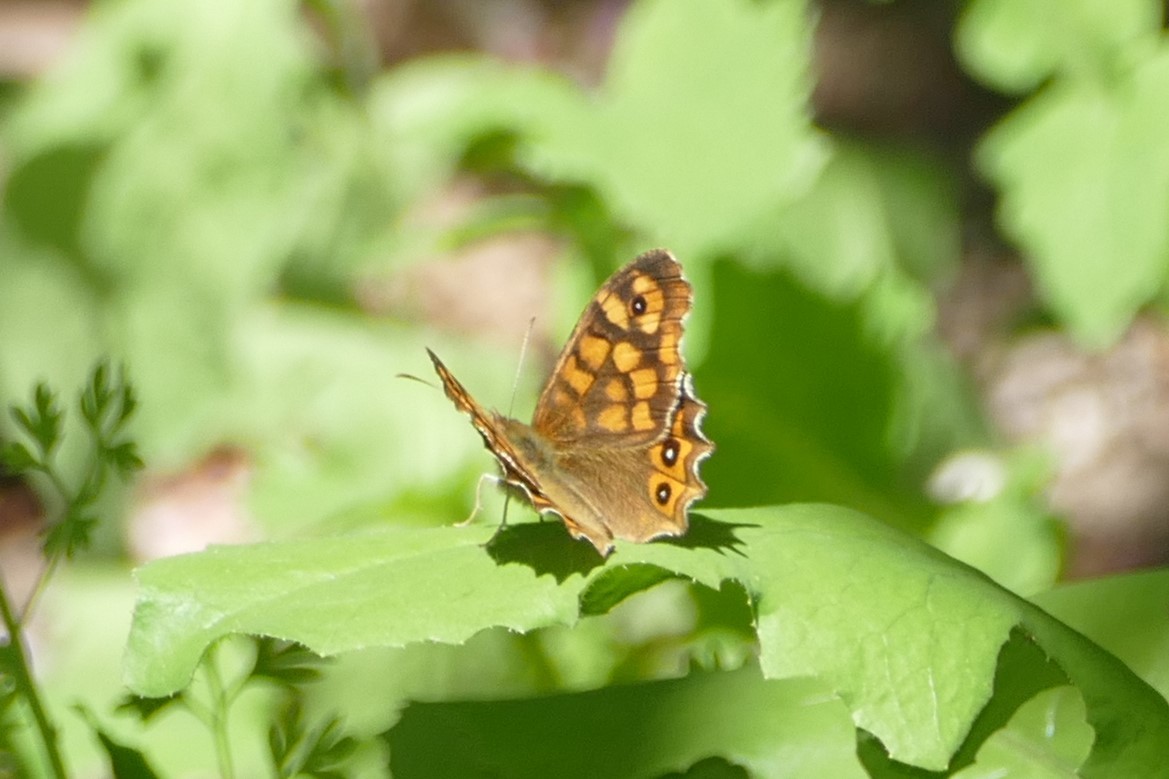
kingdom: Animalia
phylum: Arthropoda
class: Insecta
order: Lepidoptera
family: Nymphalidae
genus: Pararge
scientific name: Pararge aegeria
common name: Speckled wood
